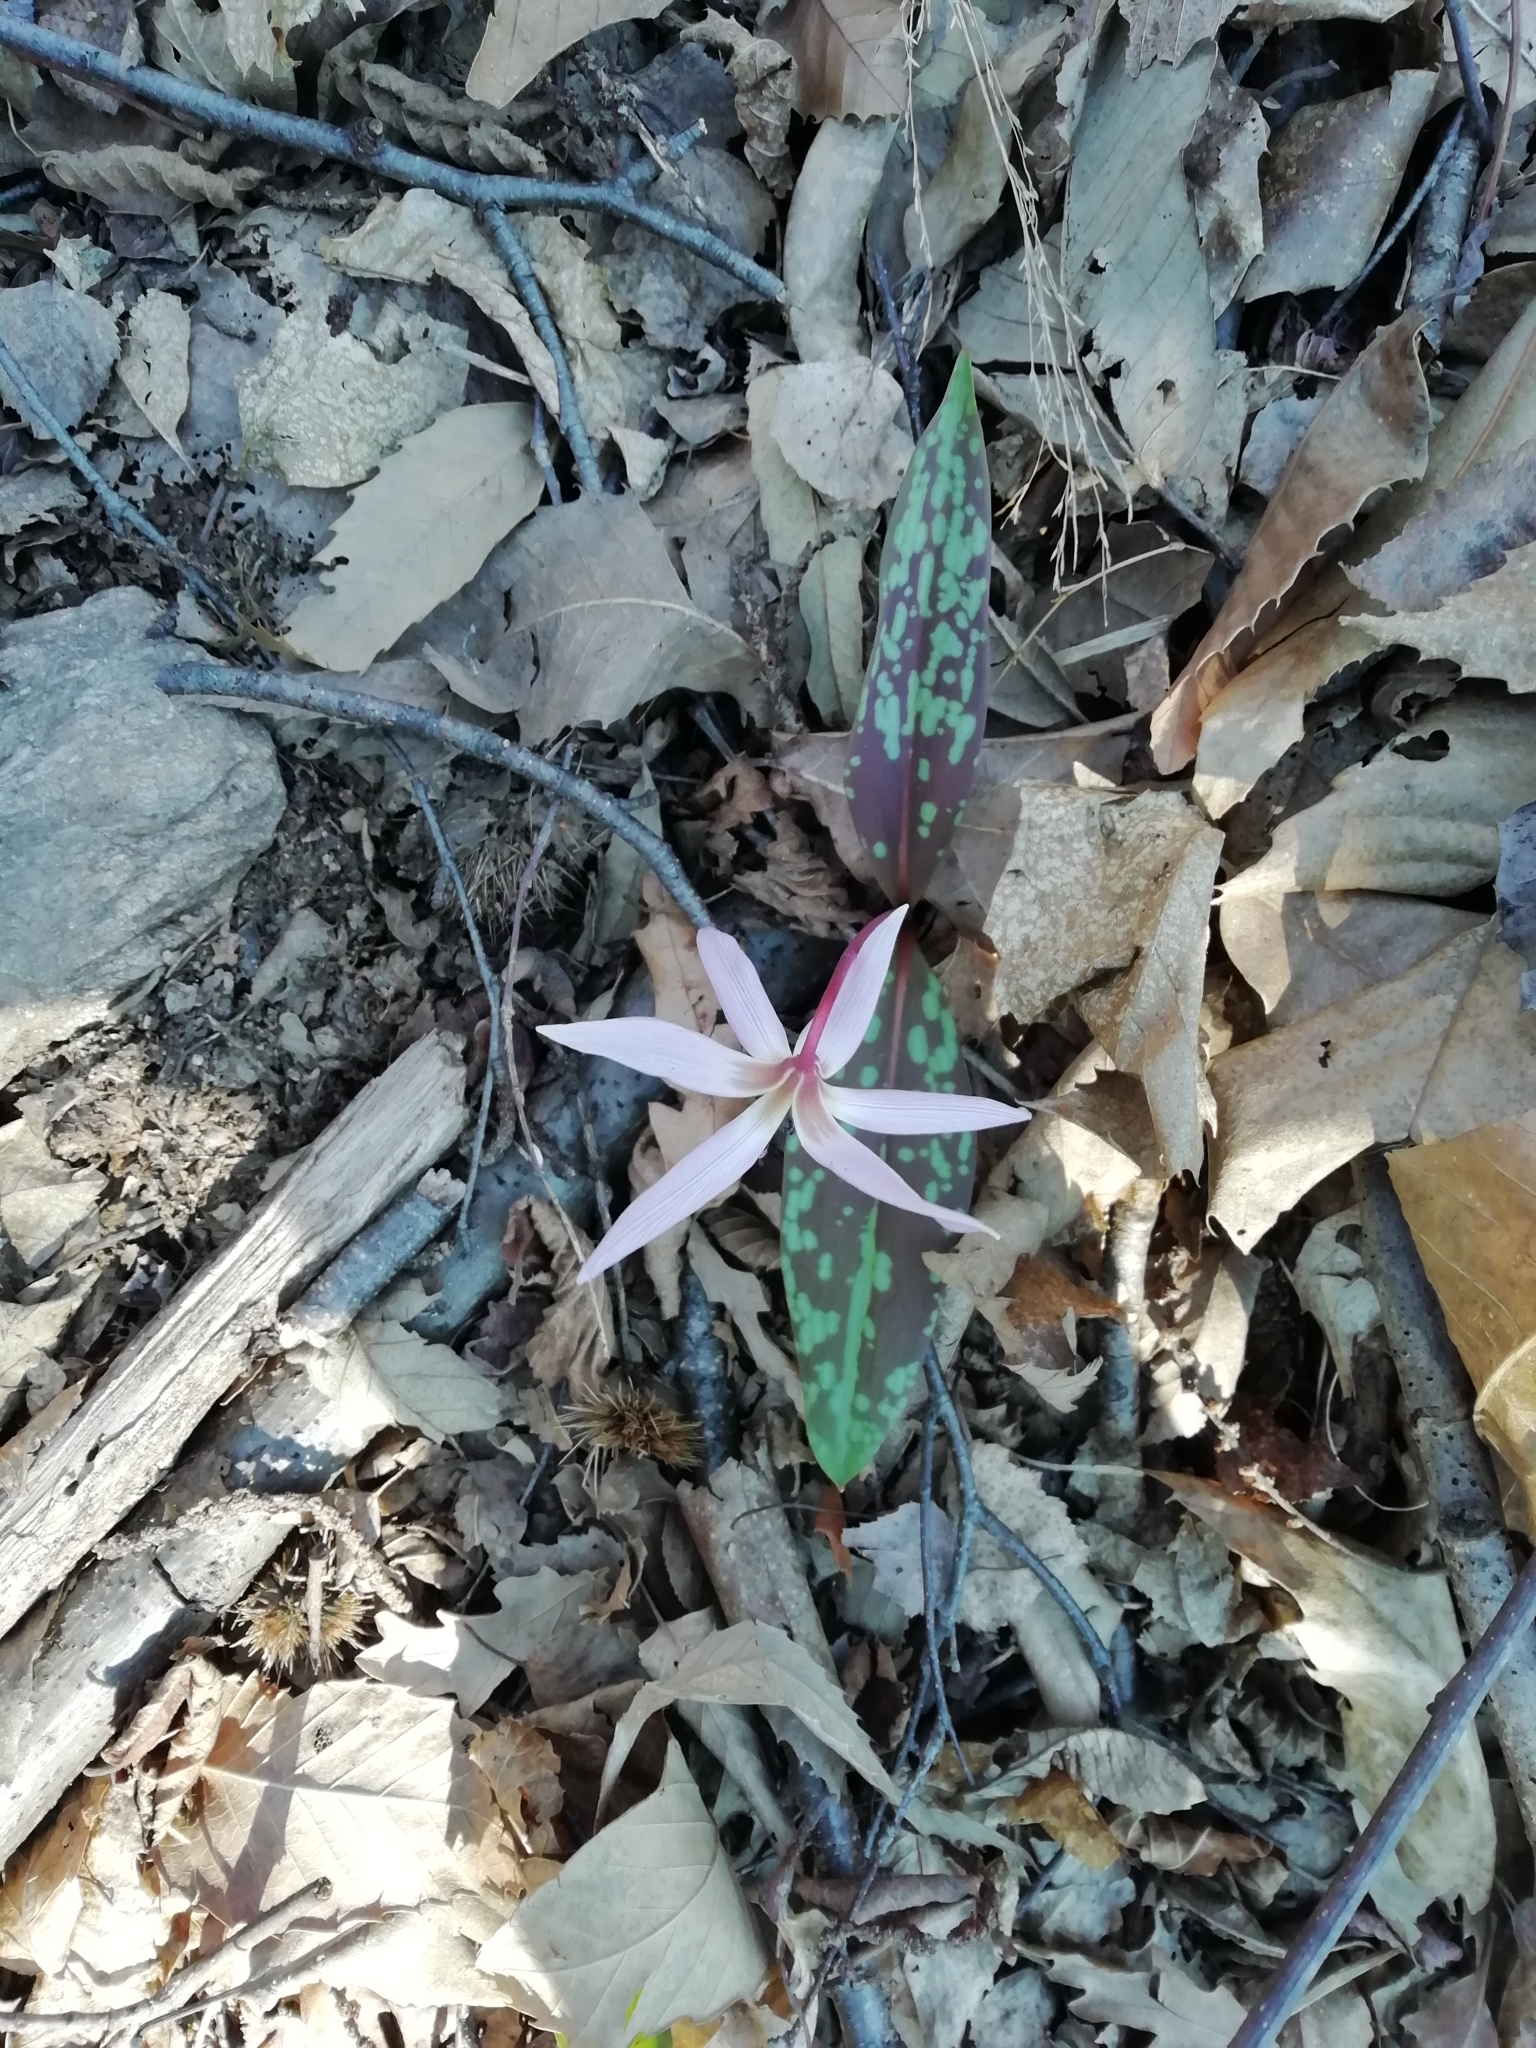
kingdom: Plantae
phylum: Tracheophyta
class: Liliopsida
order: Liliales
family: Liliaceae
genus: Erythronium
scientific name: Erythronium dens-canis
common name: Dog's-tooth-violet
